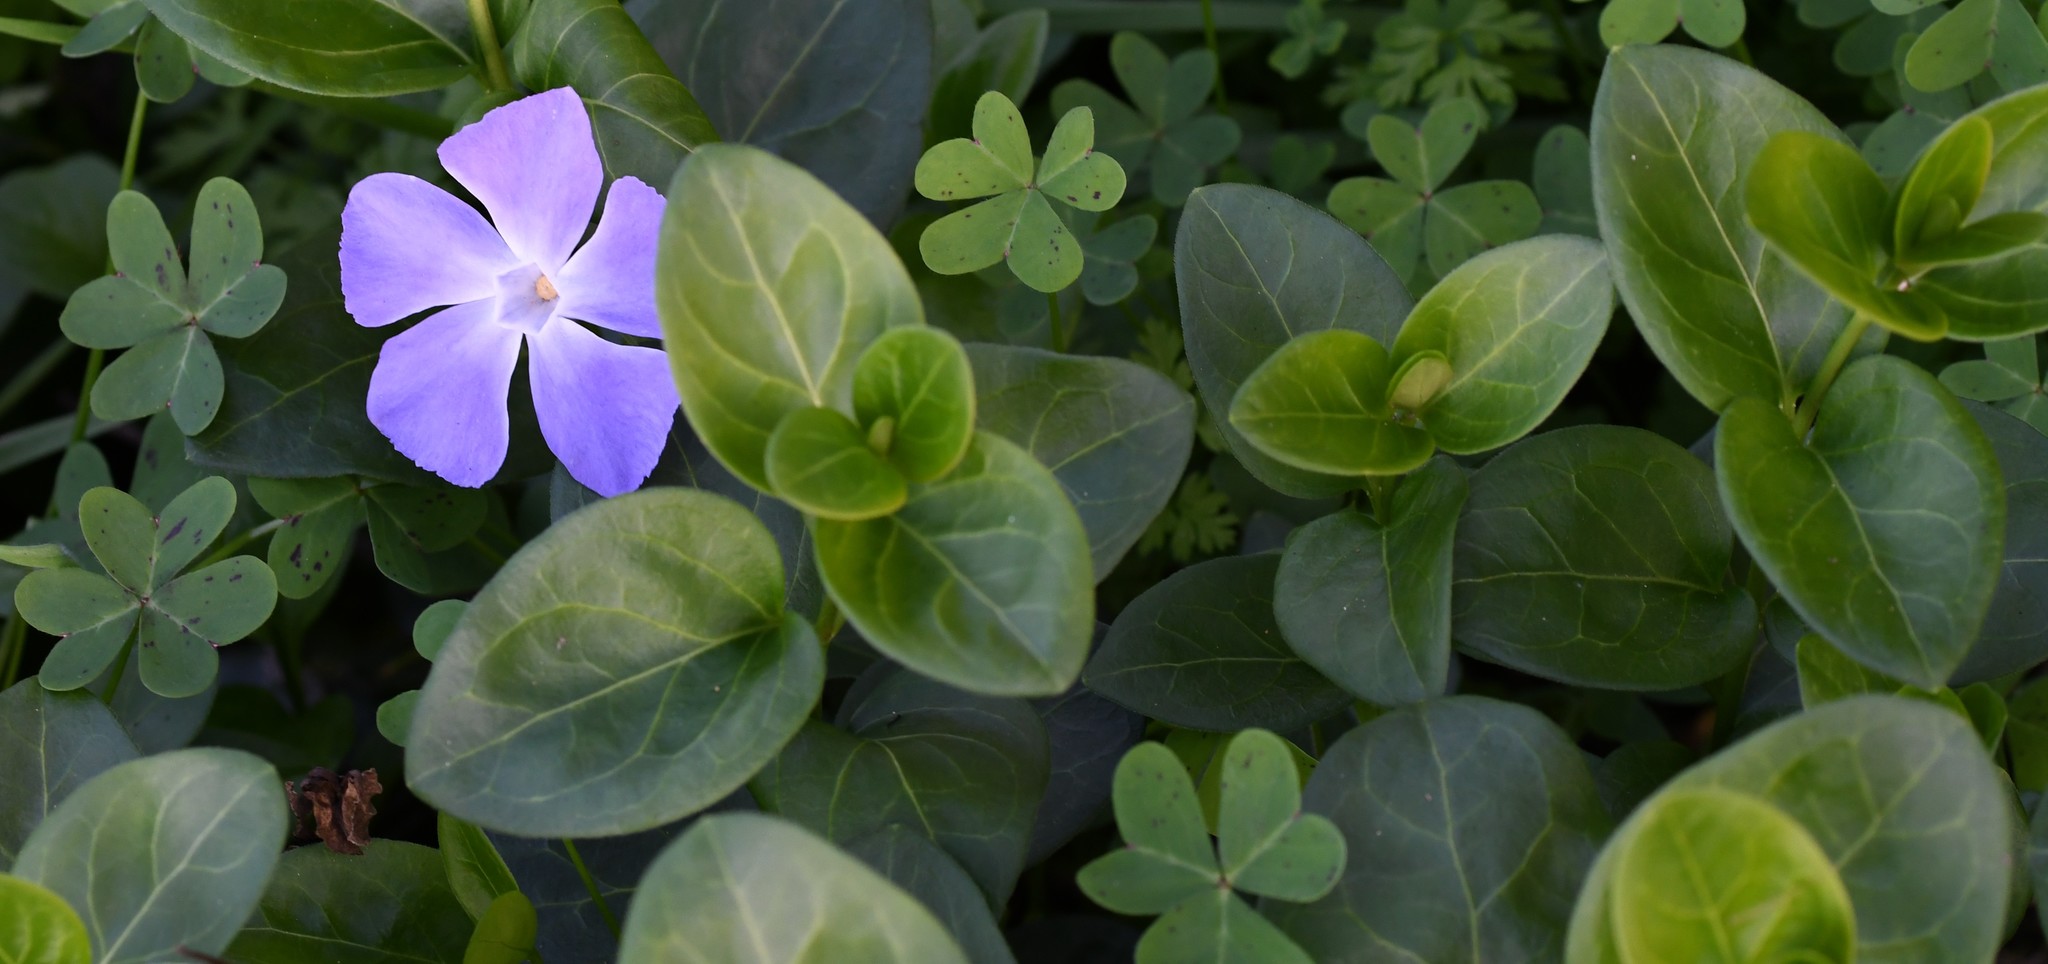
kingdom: Plantae
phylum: Tracheophyta
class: Magnoliopsida
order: Gentianales
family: Apocynaceae
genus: Vinca
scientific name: Vinca major
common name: Greater periwinkle
